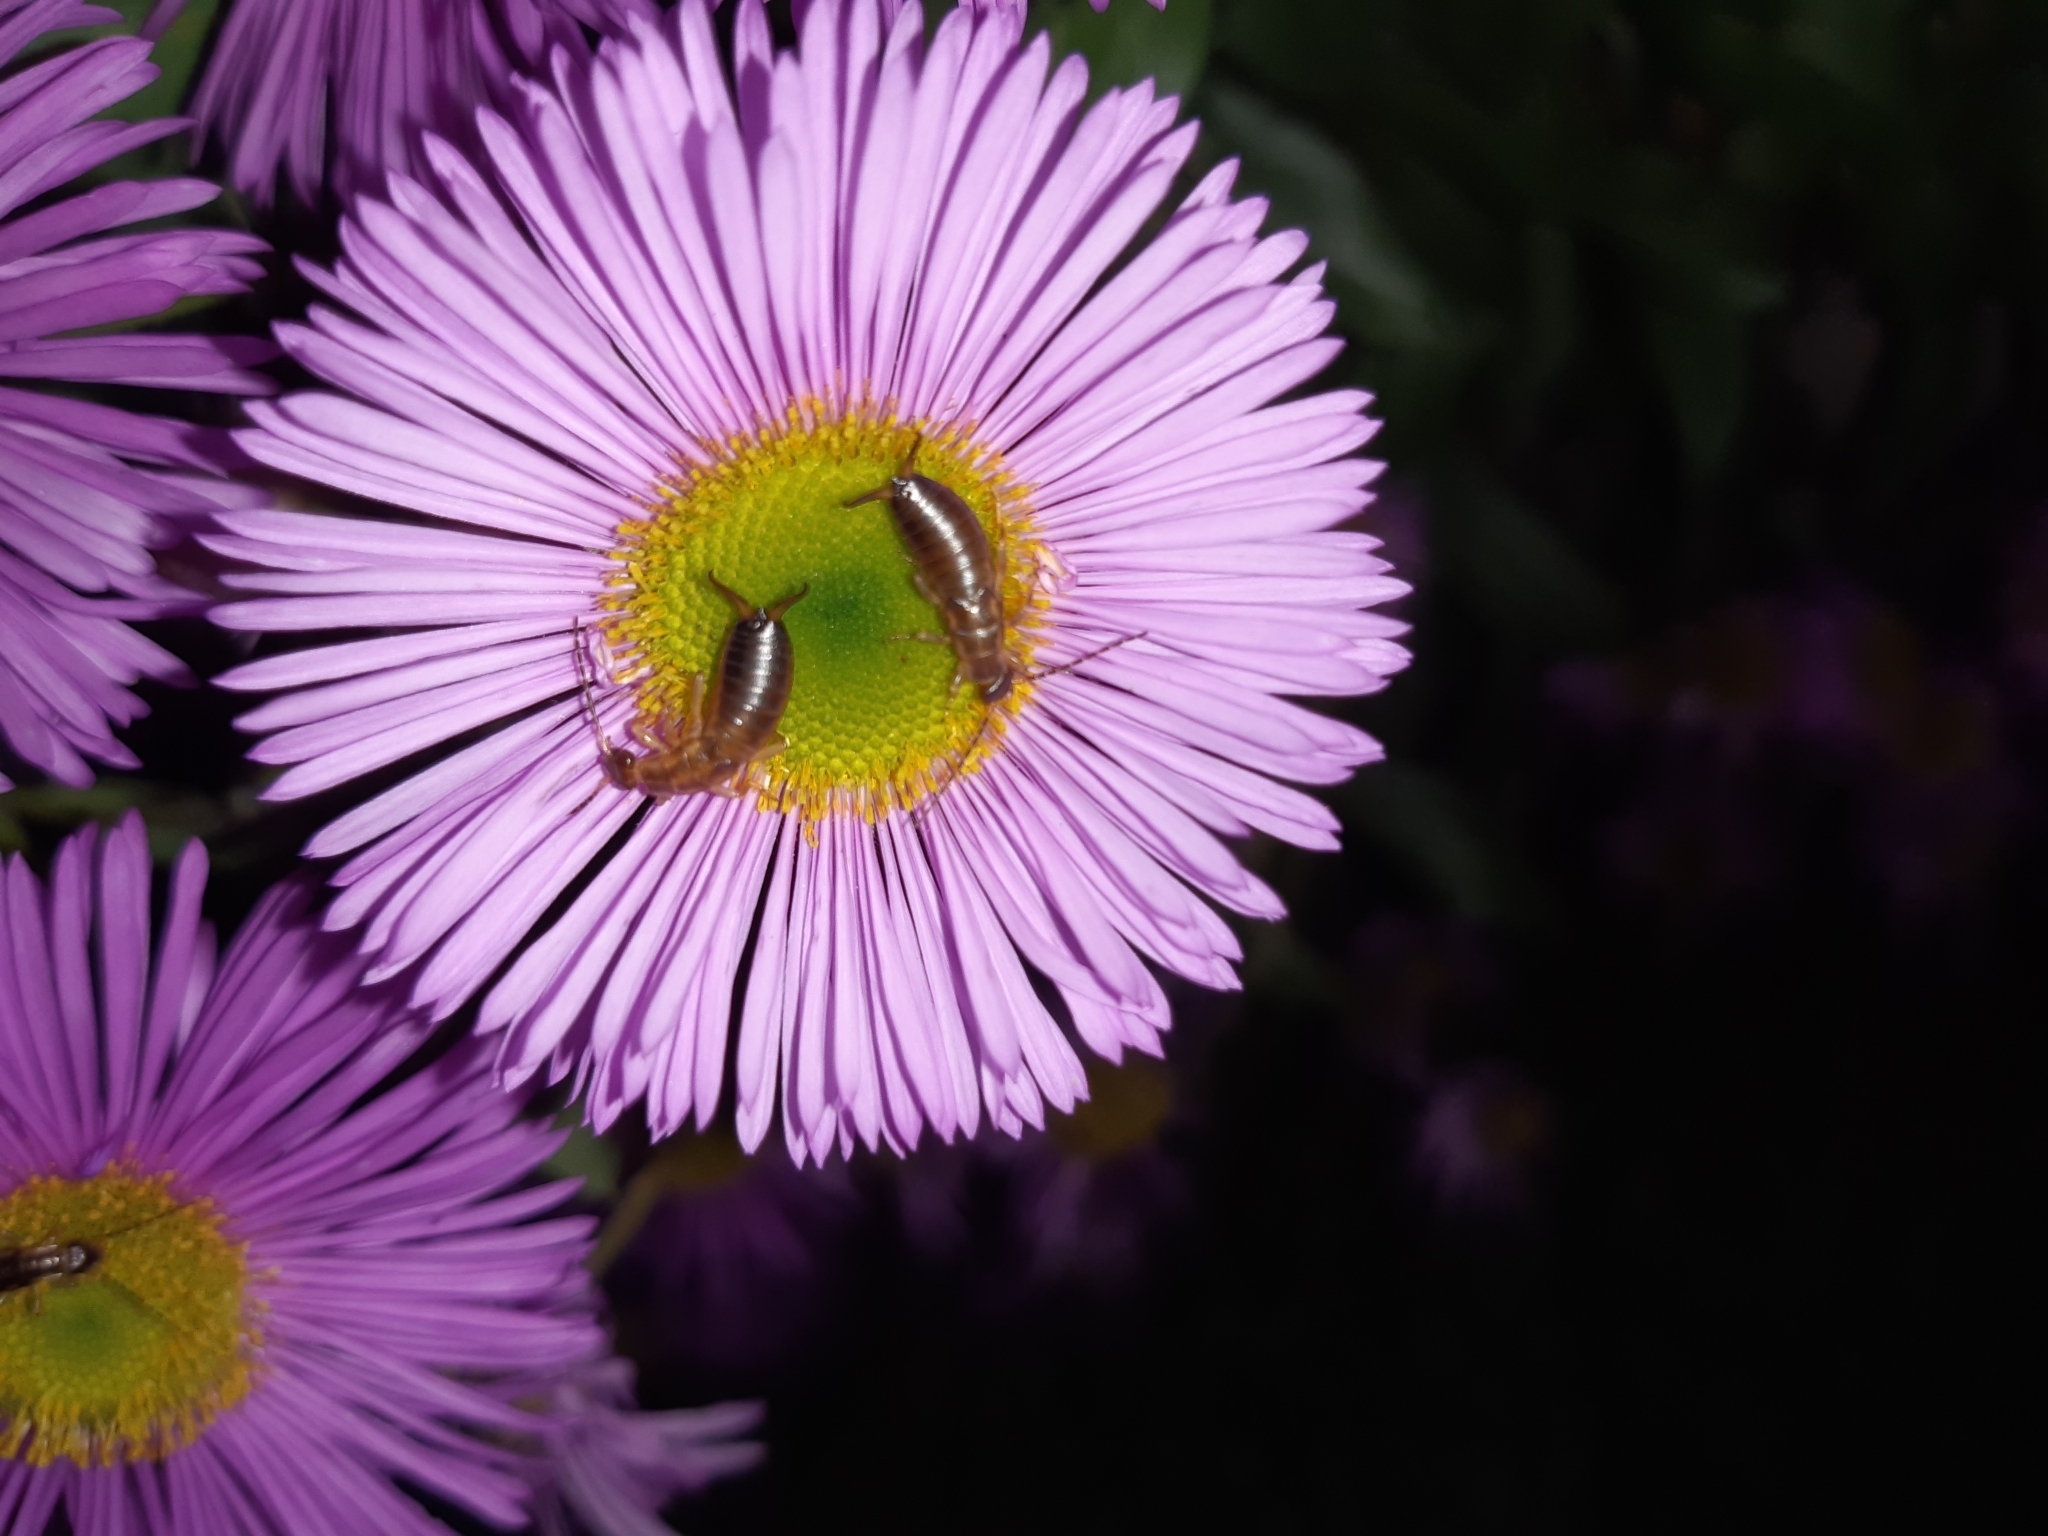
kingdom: Animalia
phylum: Arthropoda
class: Insecta
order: Dermaptera
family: Forficulidae
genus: Forficula
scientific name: Forficula dentata
